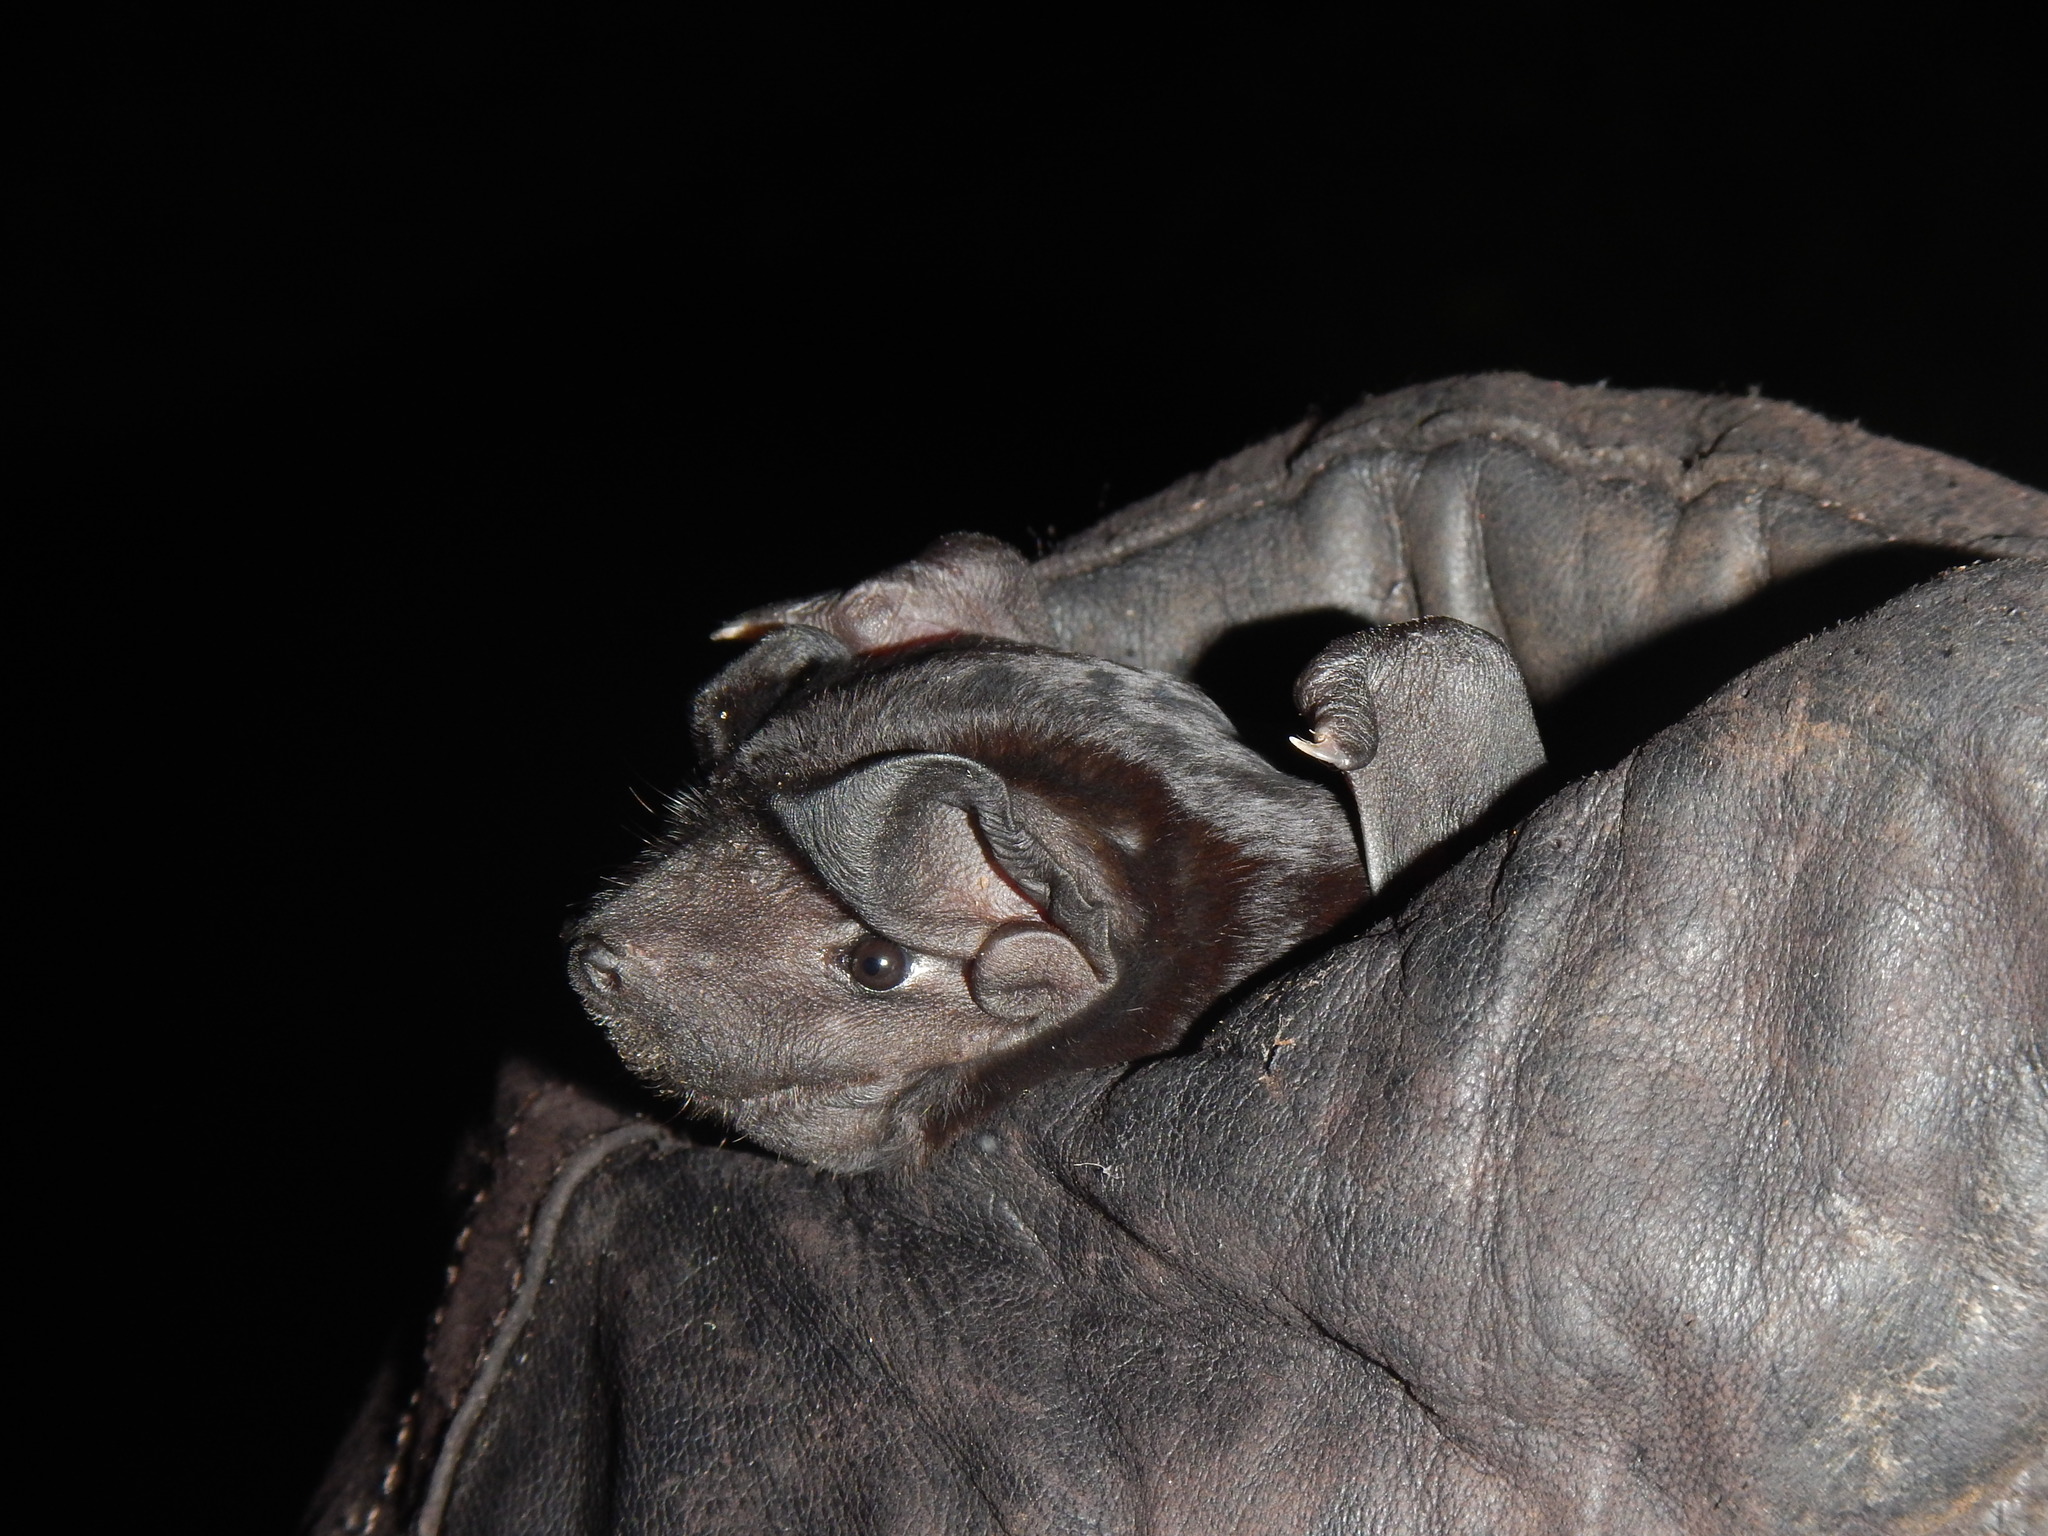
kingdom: Animalia
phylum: Chordata
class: Mammalia
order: Chiroptera
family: Molossidae
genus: Molossus
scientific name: Molossus rufus
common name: Black mastiff bat
